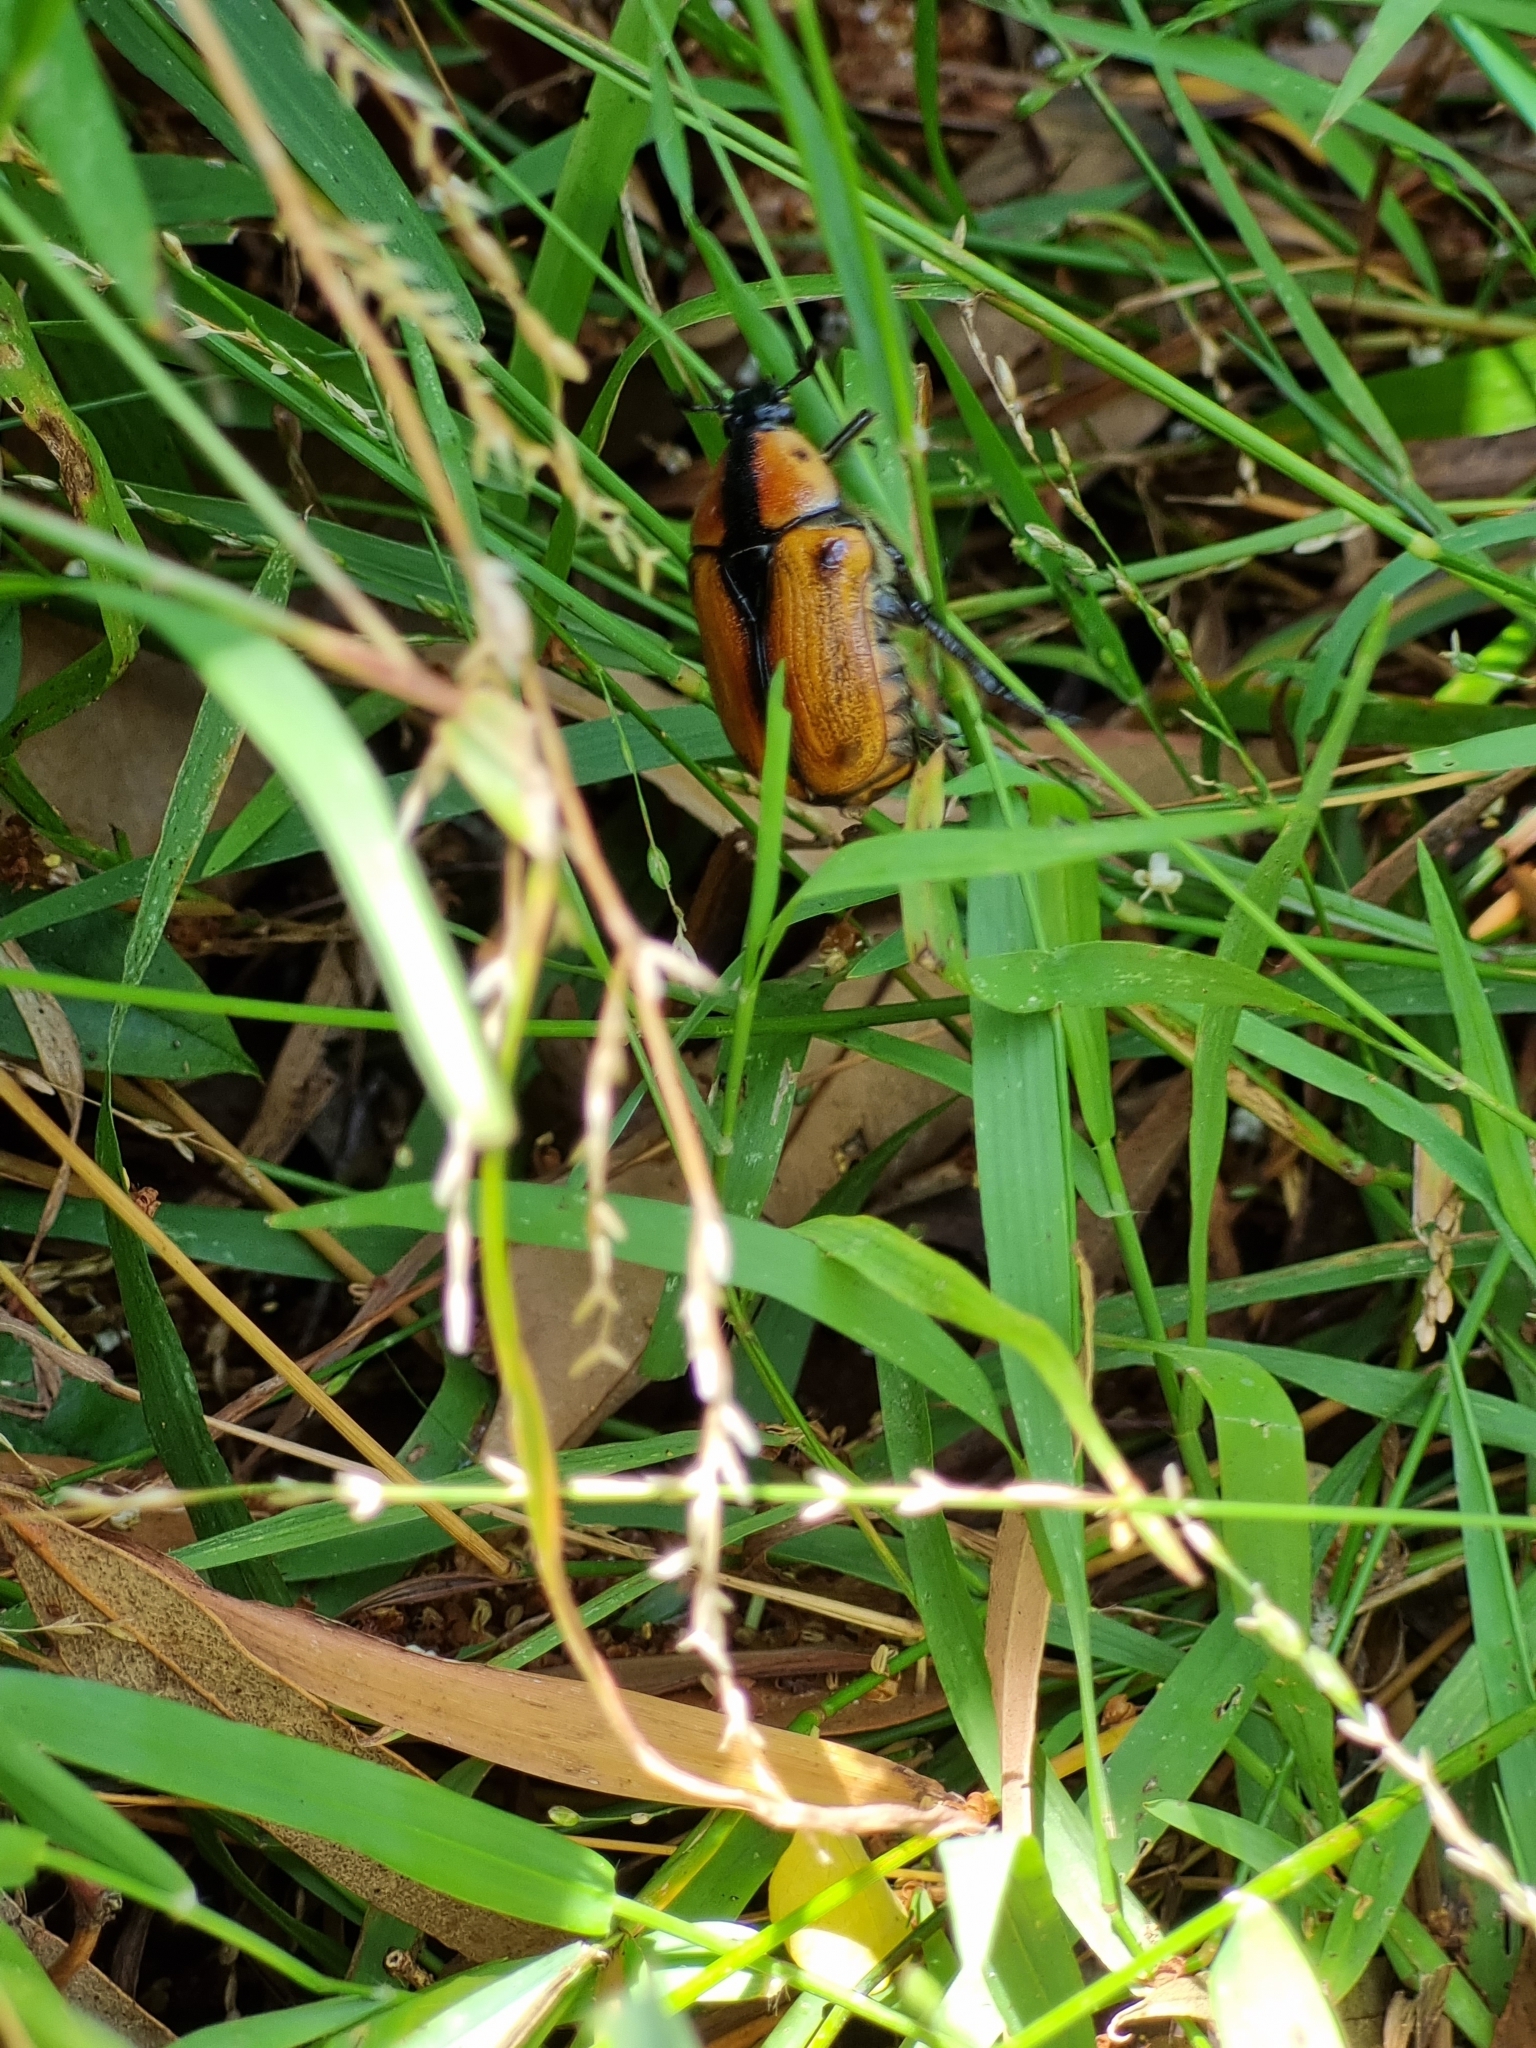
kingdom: Animalia
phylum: Arthropoda
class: Insecta
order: Coleoptera
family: Scarabaeidae
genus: Chondropyga
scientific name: Chondropyga dorsalis
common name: Cowboy beetle
